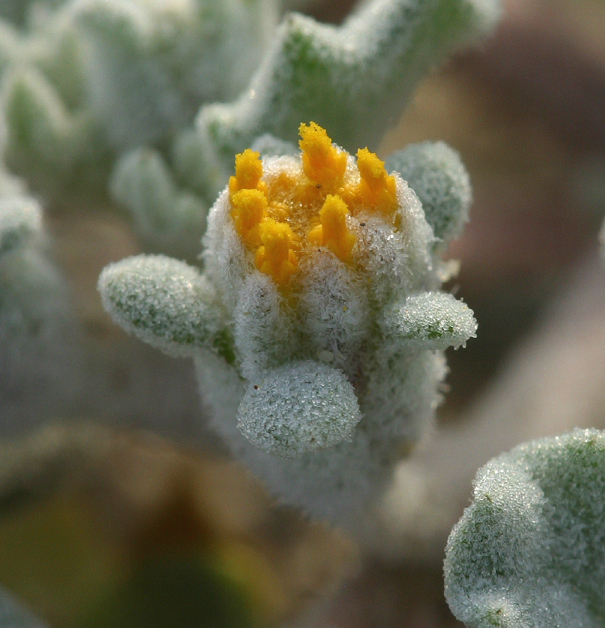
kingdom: Plantae
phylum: Tracheophyta
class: Magnoliopsida
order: Asterales
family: Asteraceae
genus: Psathyrotes
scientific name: Psathyrotes ramosissima
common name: Turtleback
